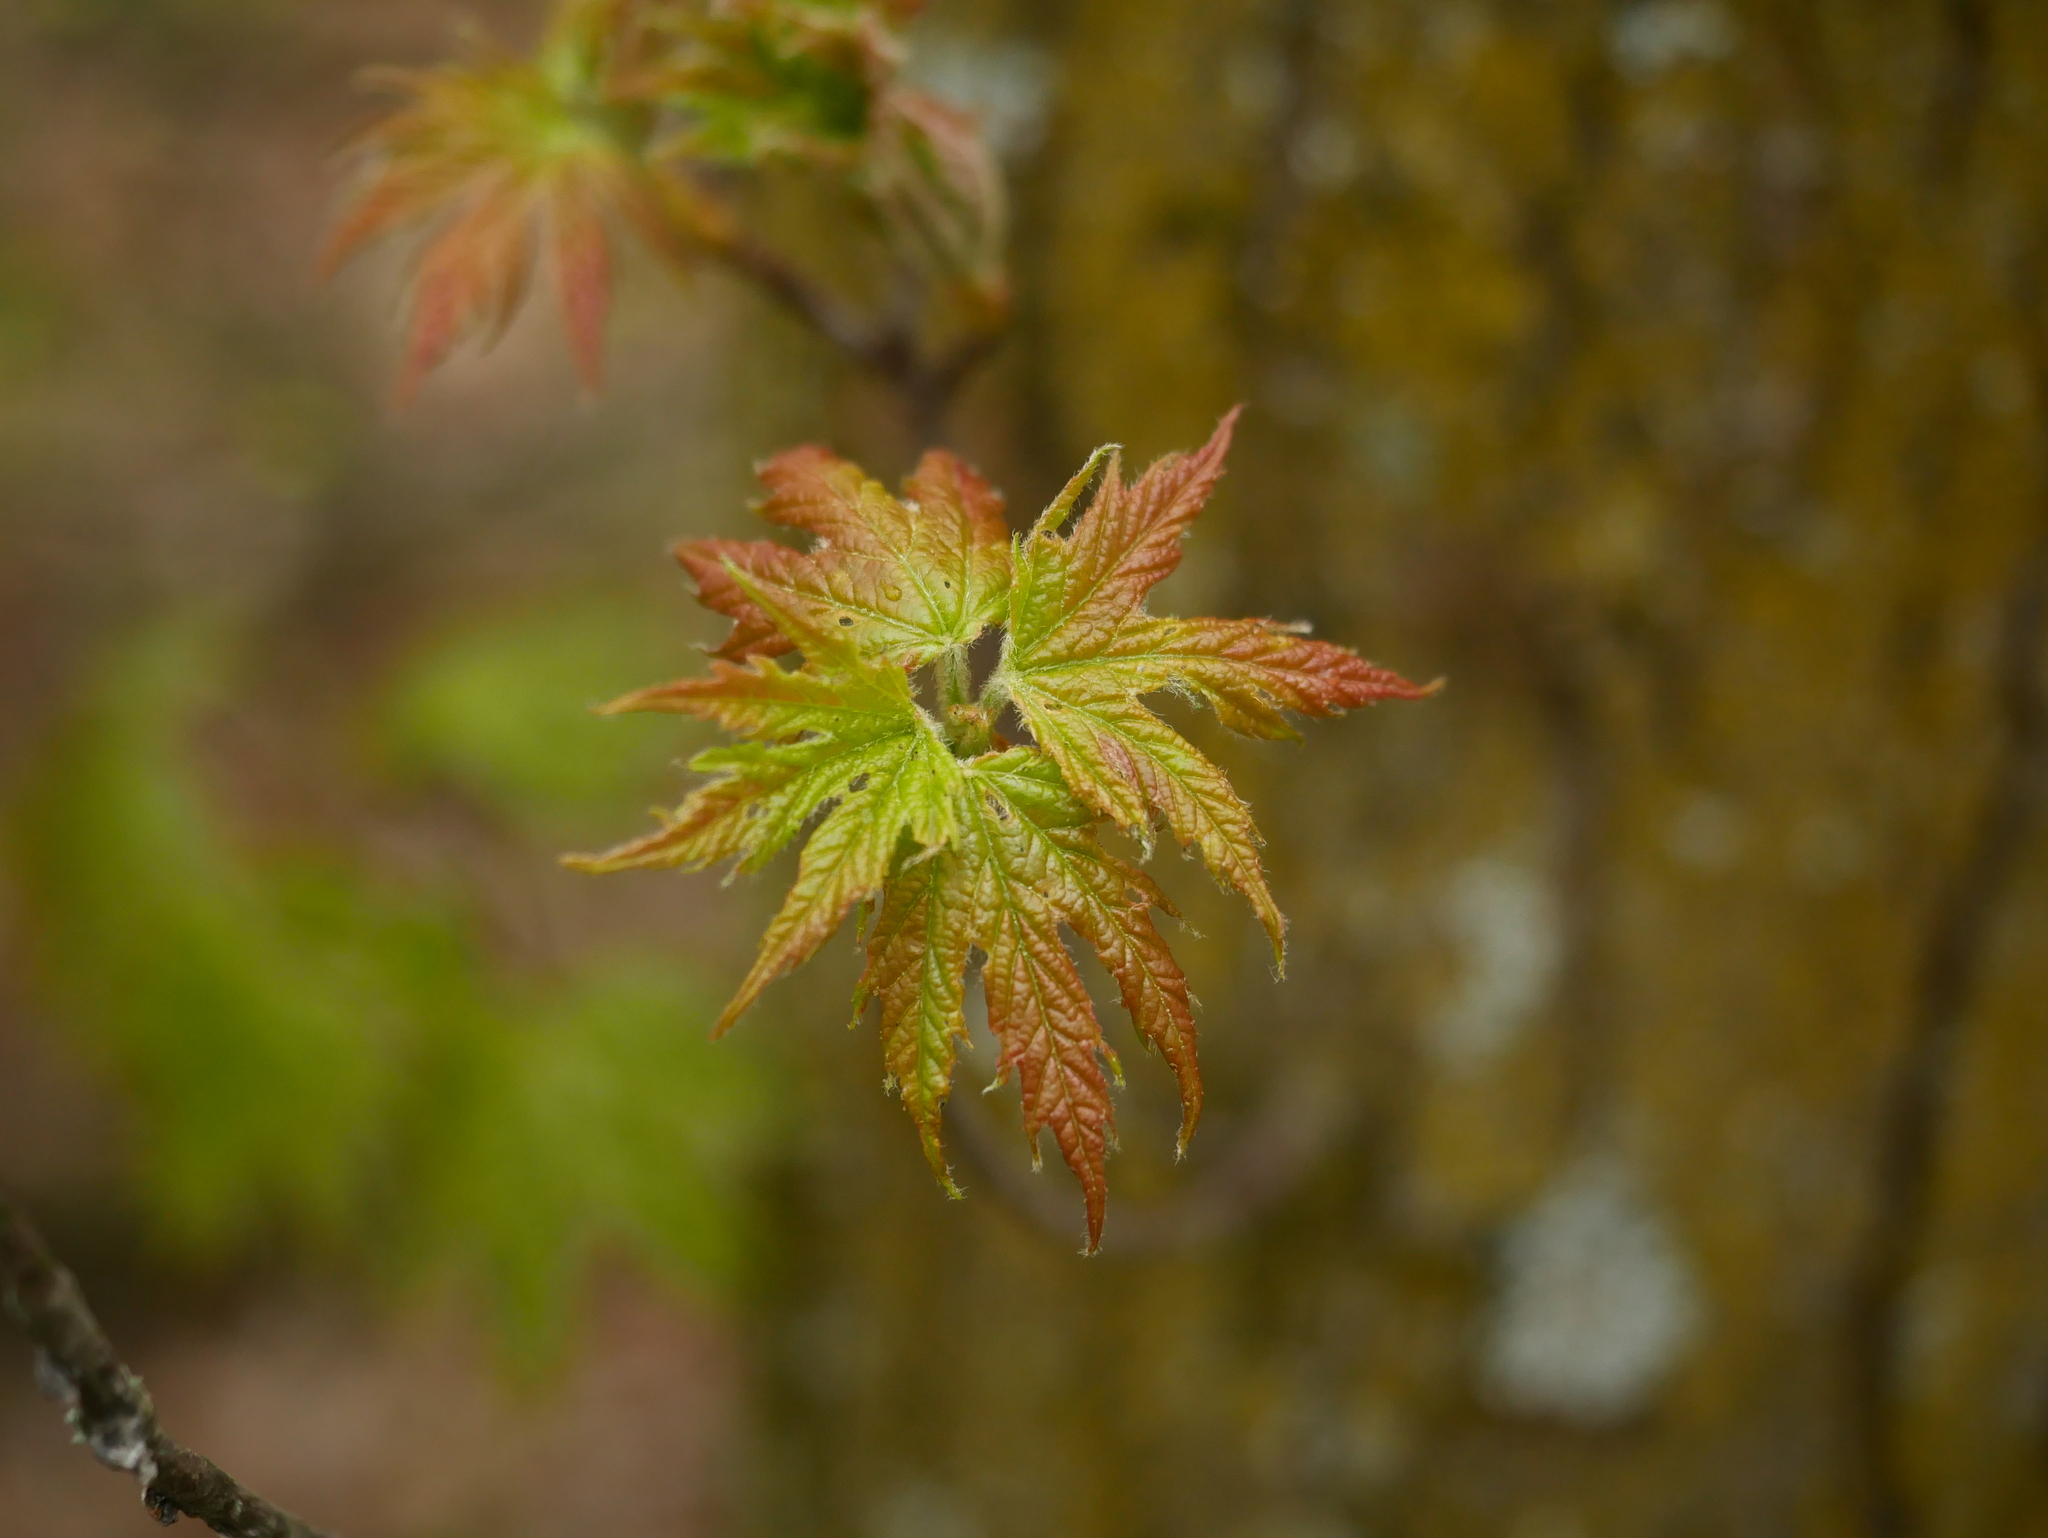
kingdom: Plantae
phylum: Tracheophyta
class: Magnoliopsida
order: Sapindales
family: Sapindaceae
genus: Acer
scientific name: Acer saccharinum
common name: Silver maple
